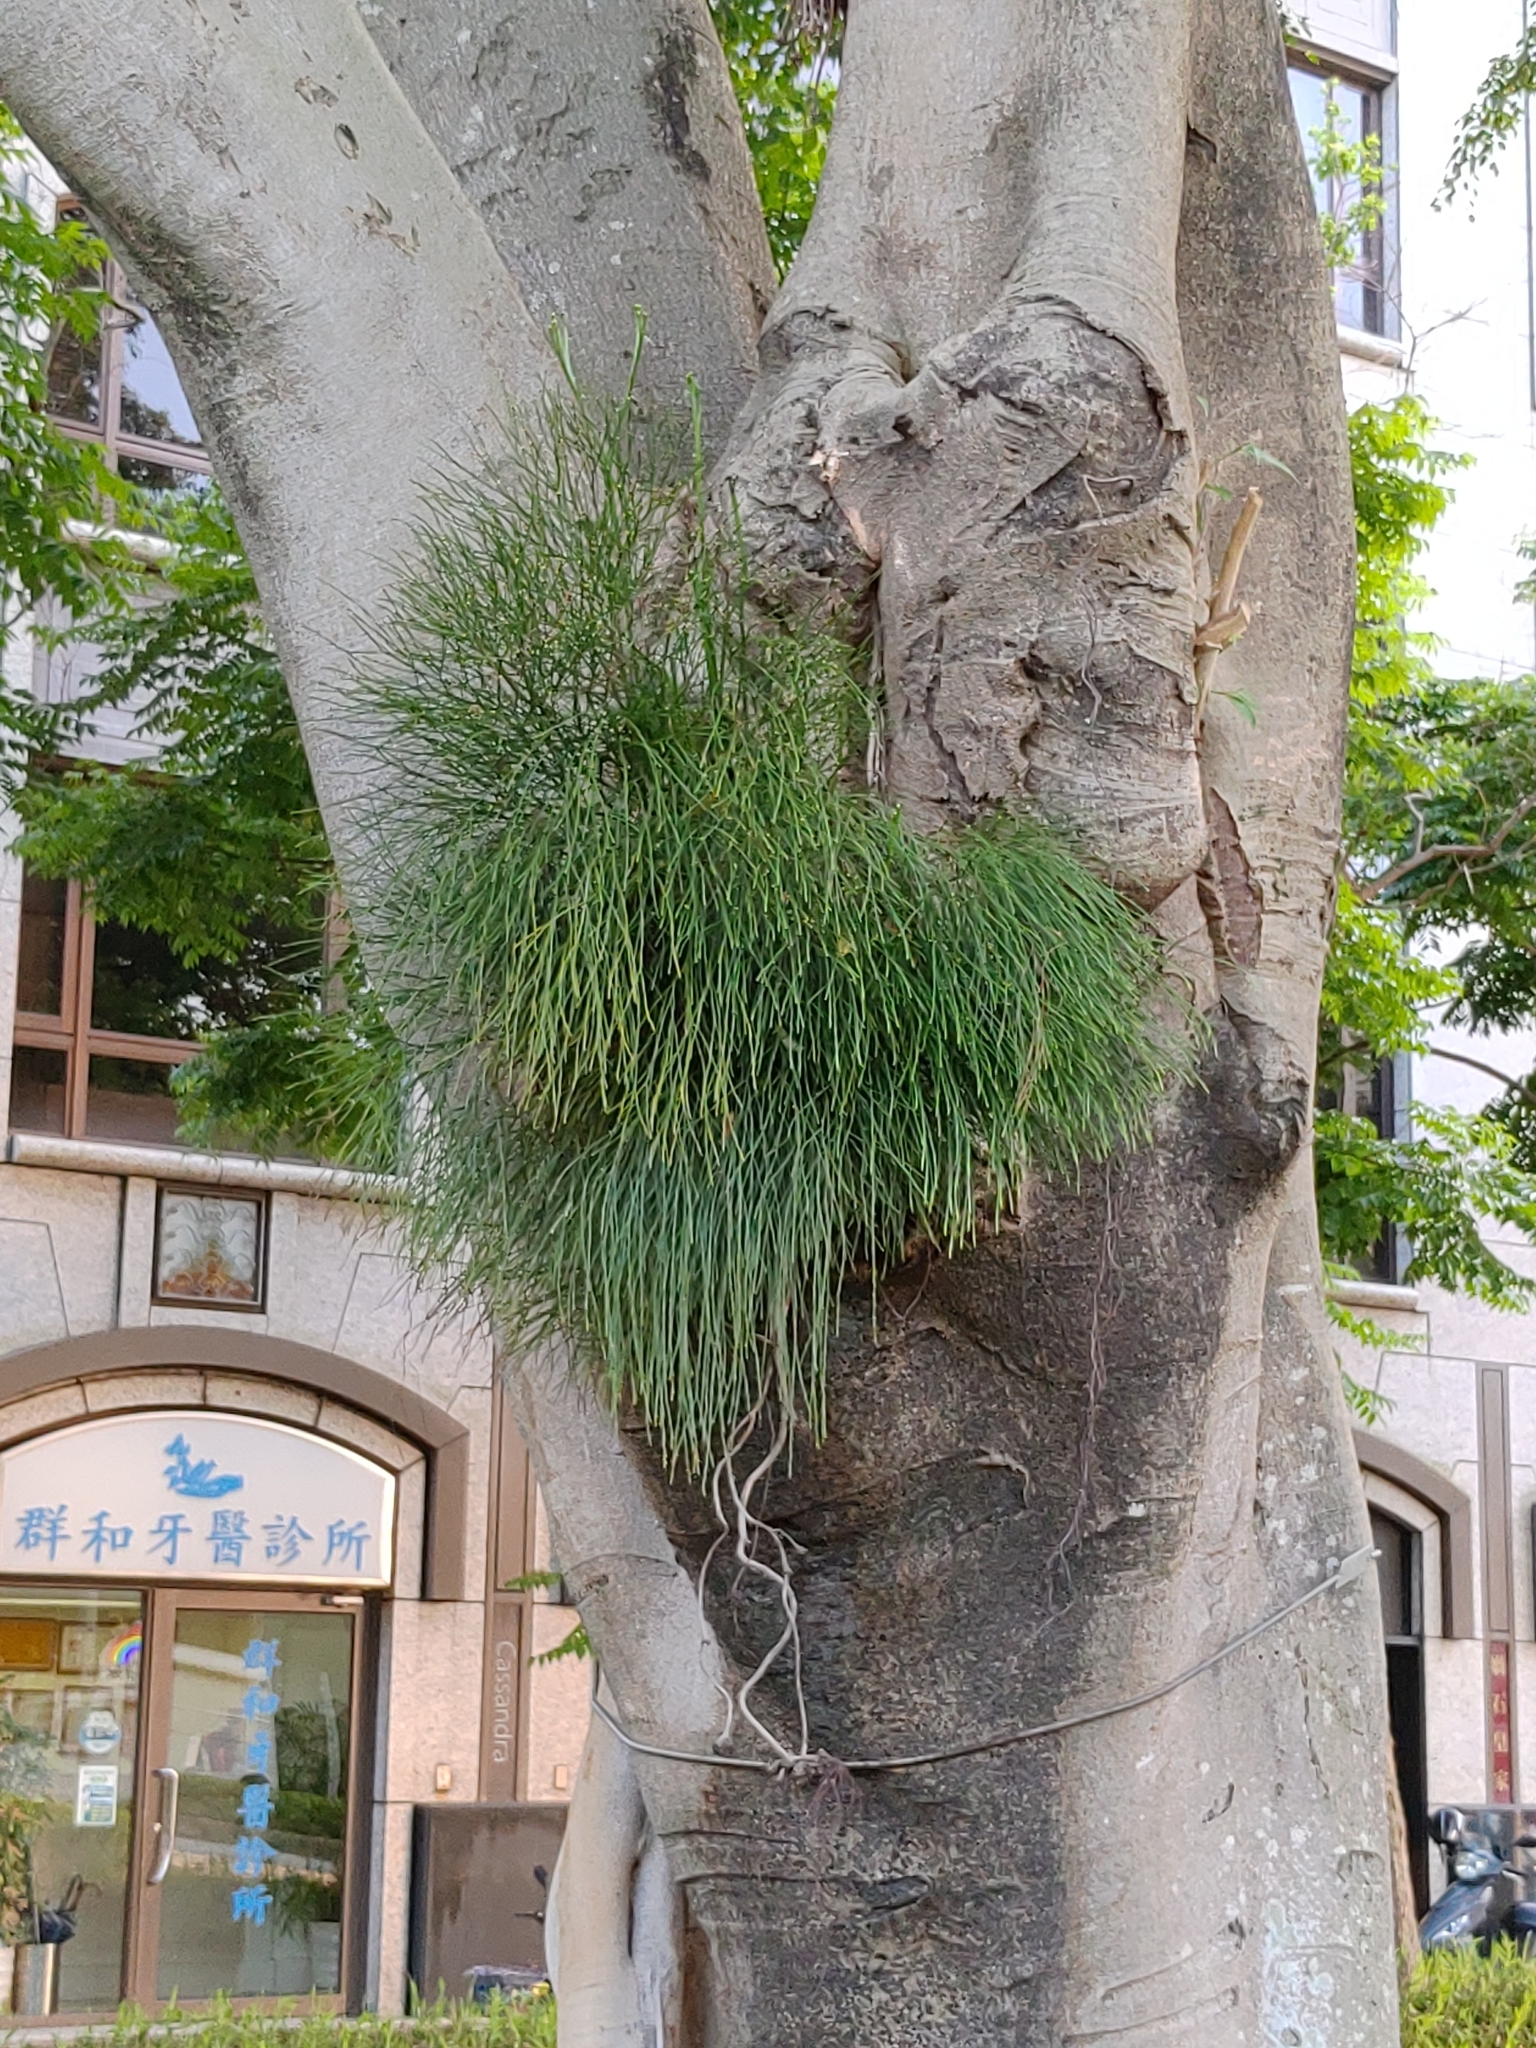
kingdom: Plantae
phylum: Tracheophyta
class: Polypodiopsida
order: Psilotales
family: Psilotaceae
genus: Psilotum
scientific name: Psilotum nudum
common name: Skeleton fork fern
